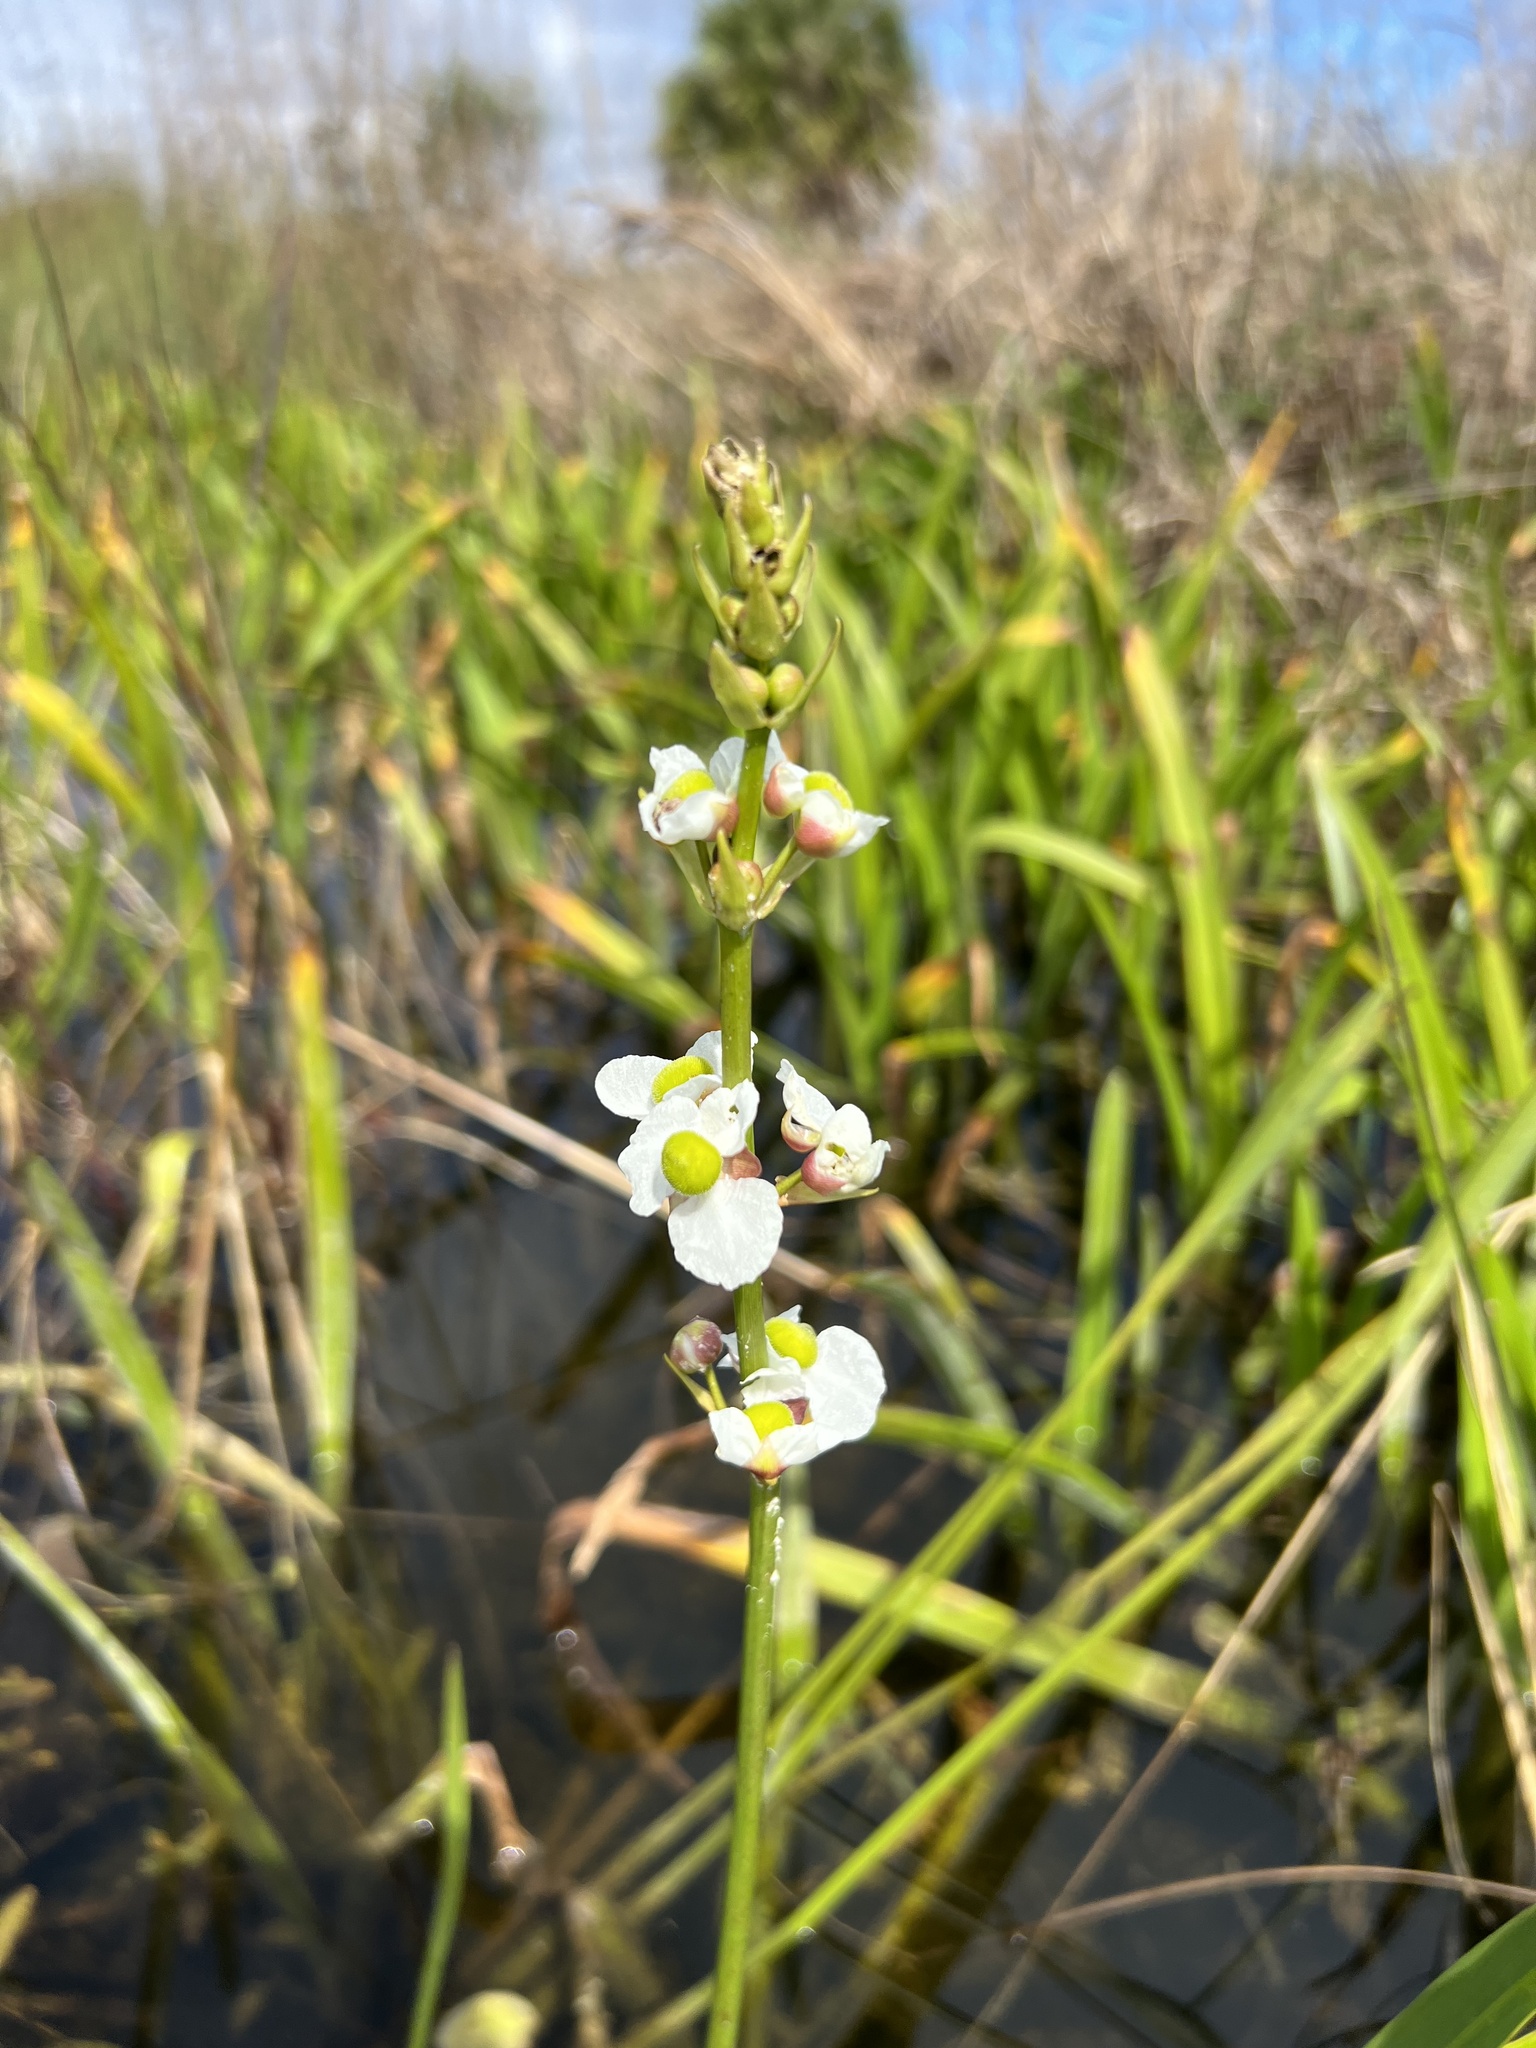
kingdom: Plantae
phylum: Tracheophyta
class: Liliopsida
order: Alismatales
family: Alismataceae
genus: Sagittaria
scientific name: Sagittaria lancifolia
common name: Lance-leaf arrowhead
